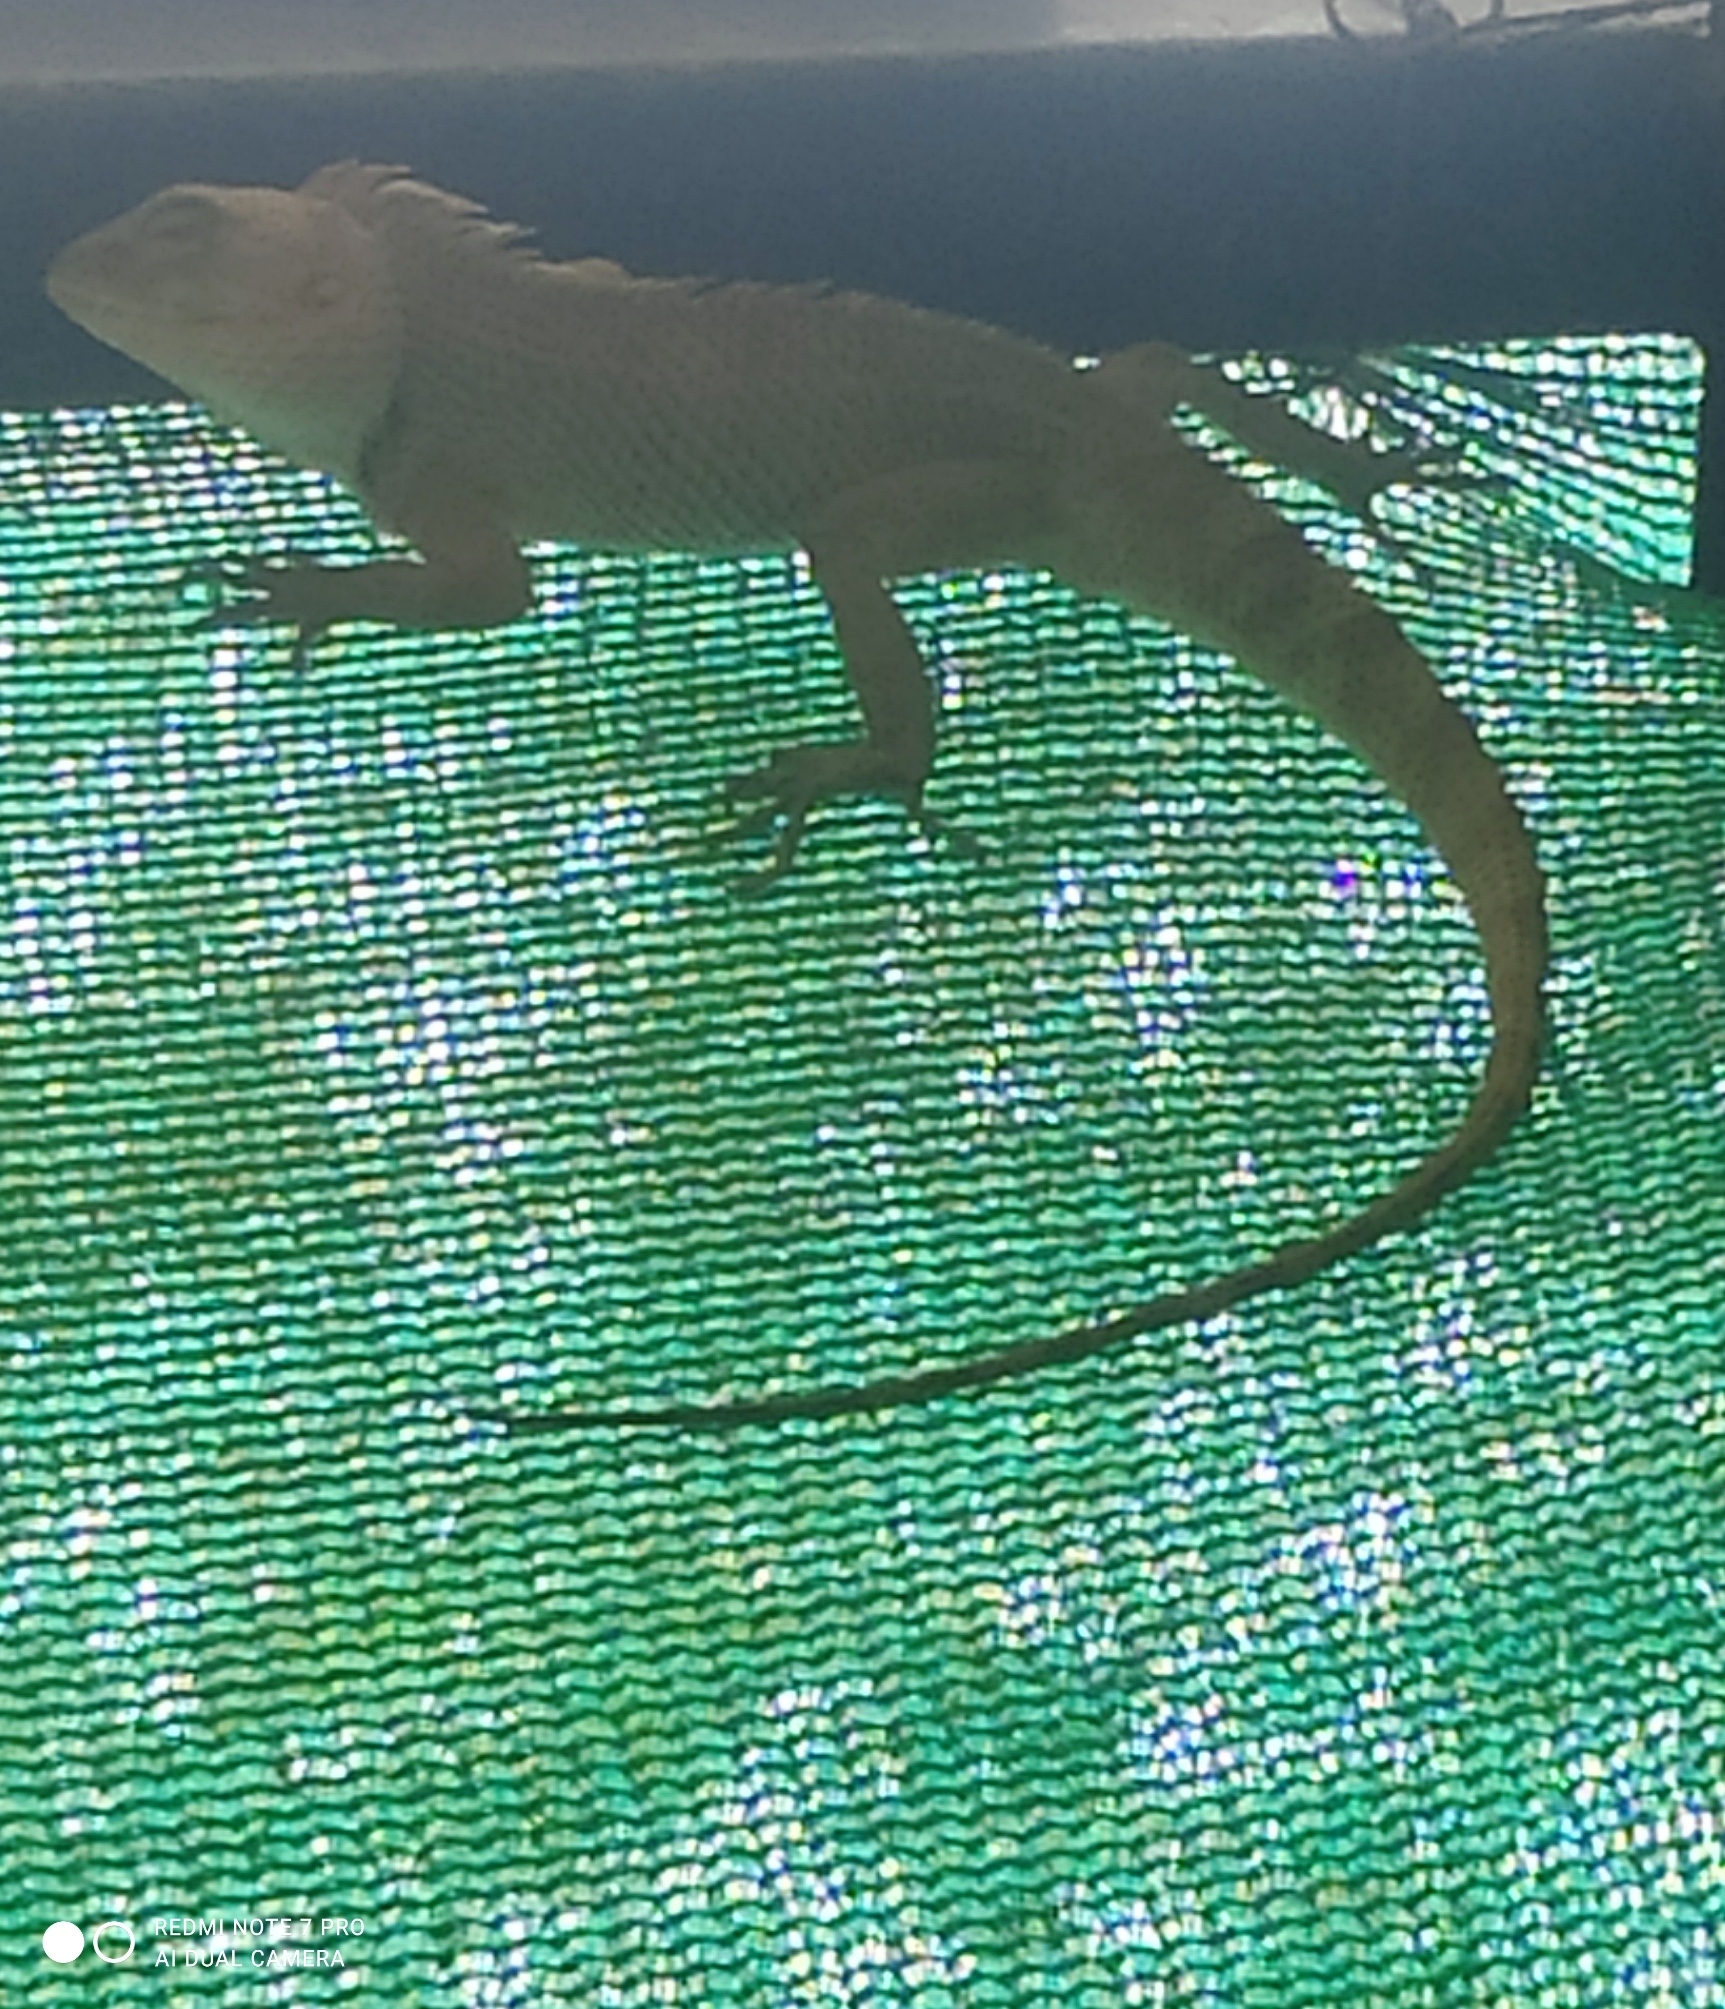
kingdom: Animalia
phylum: Chordata
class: Squamata
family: Agamidae
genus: Calotes
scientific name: Calotes versicolor
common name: Oriental garden lizard
